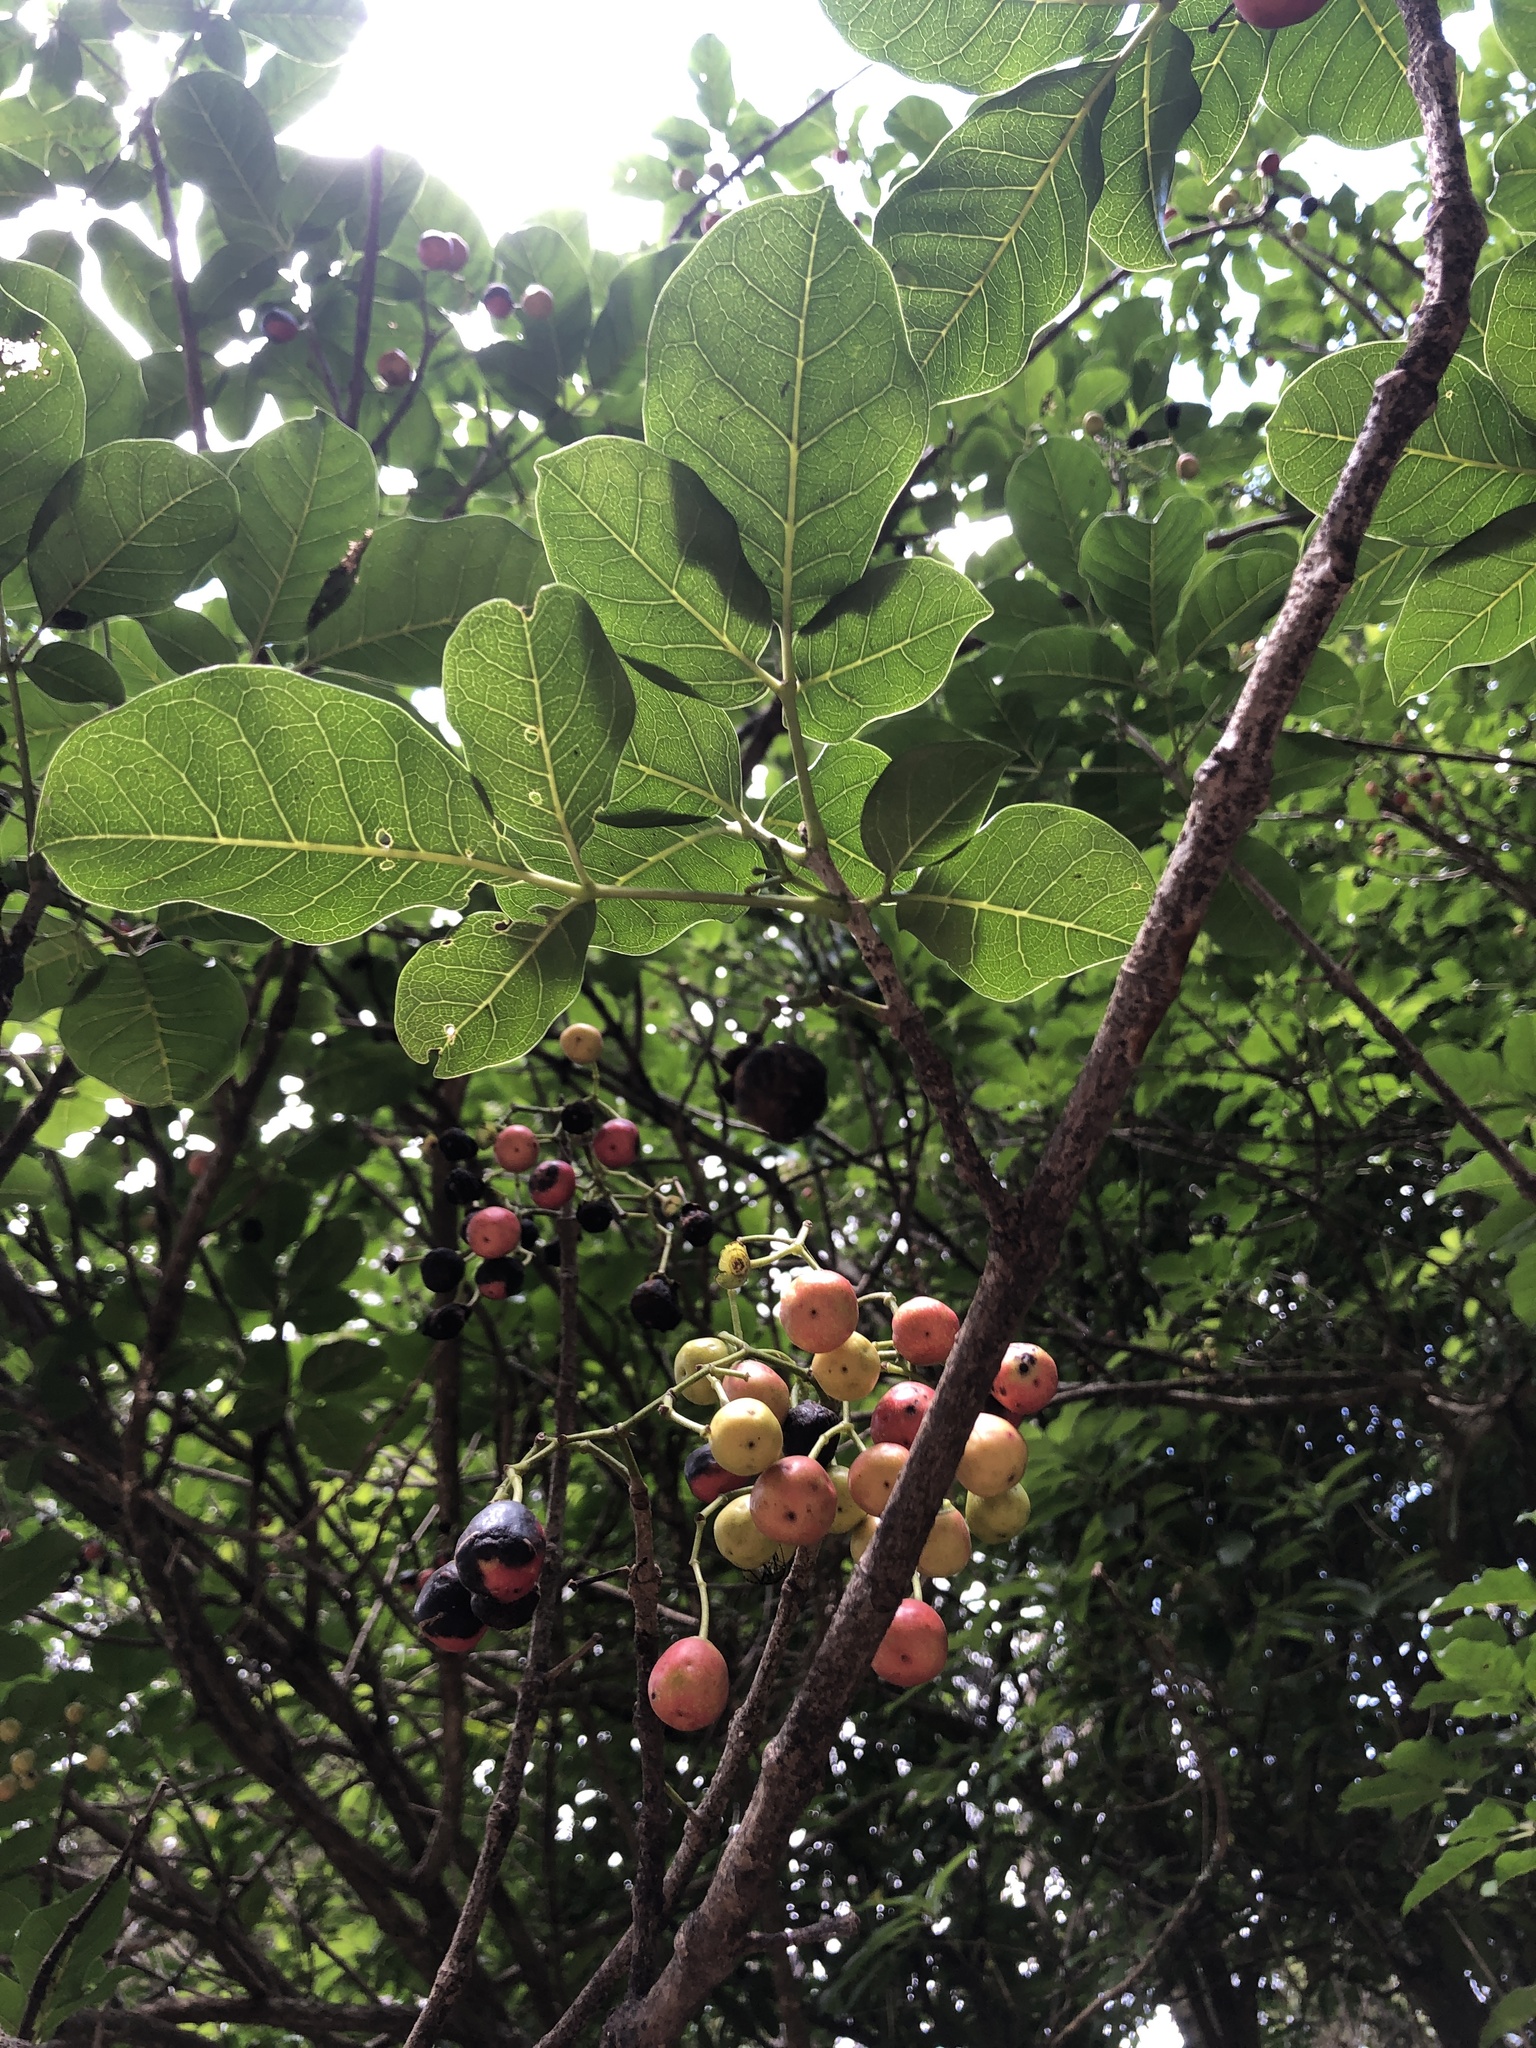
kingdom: Plantae
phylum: Tracheophyta
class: Magnoliopsida
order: Lamiales
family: Lamiaceae
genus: Vitex
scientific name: Vitex lucens
